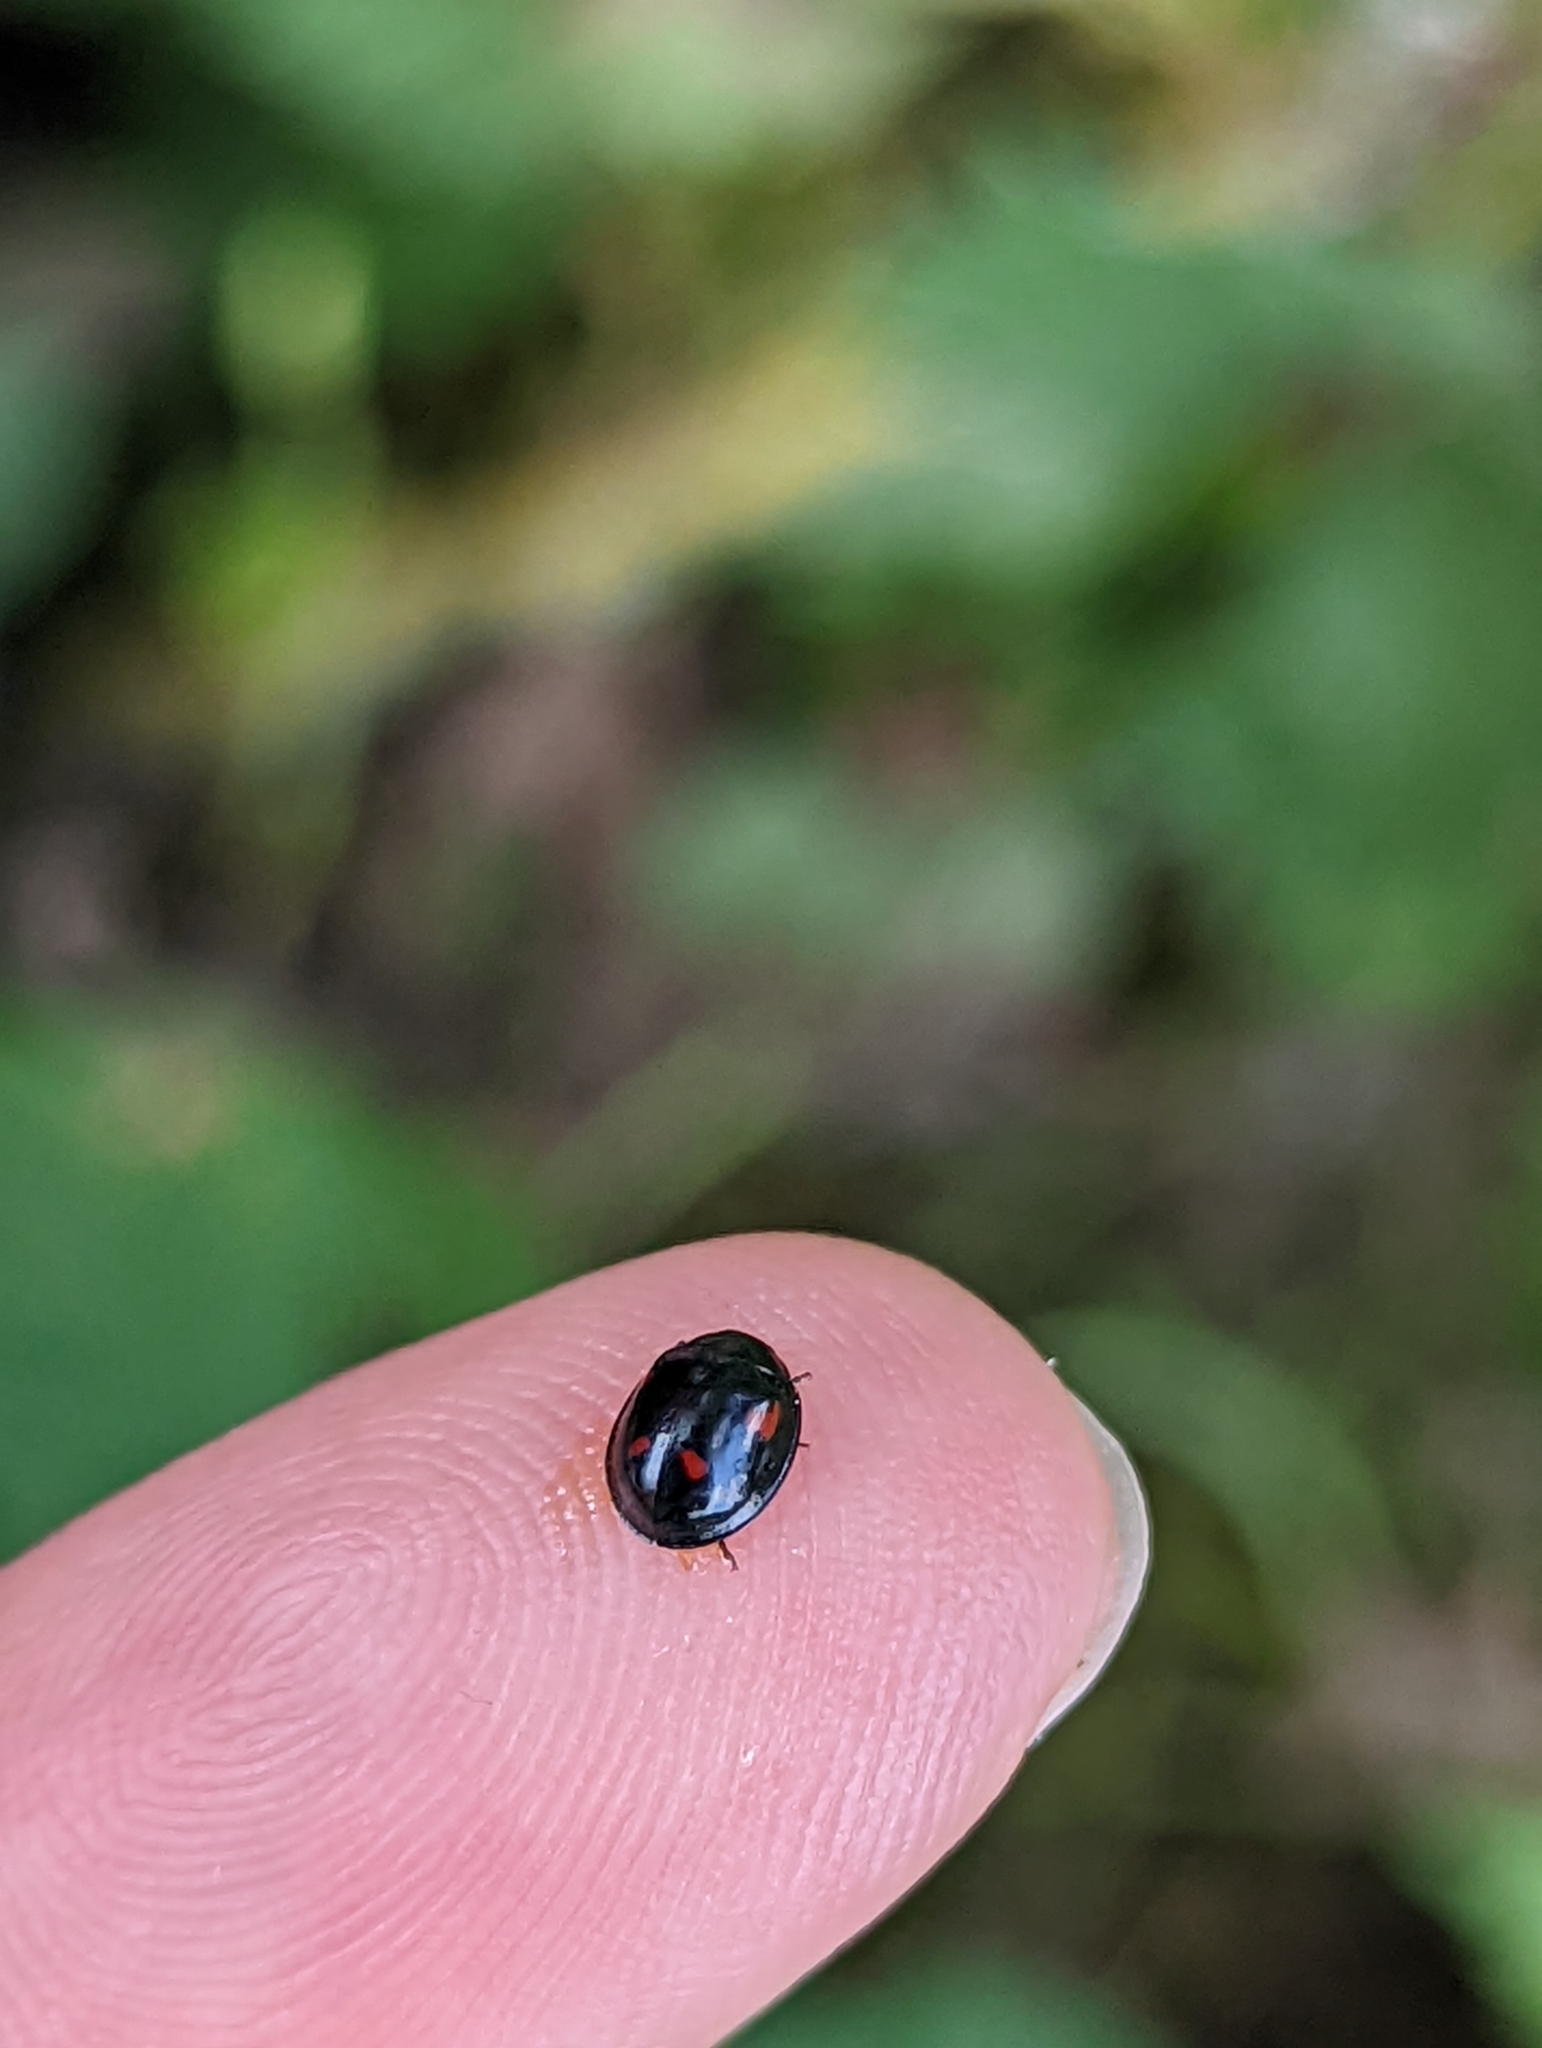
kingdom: Animalia
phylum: Arthropoda
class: Insecta
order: Coleoptera
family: Coccinellidae
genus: Brumus
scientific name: Brumus quadripustulatus
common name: Ladybird beetle
